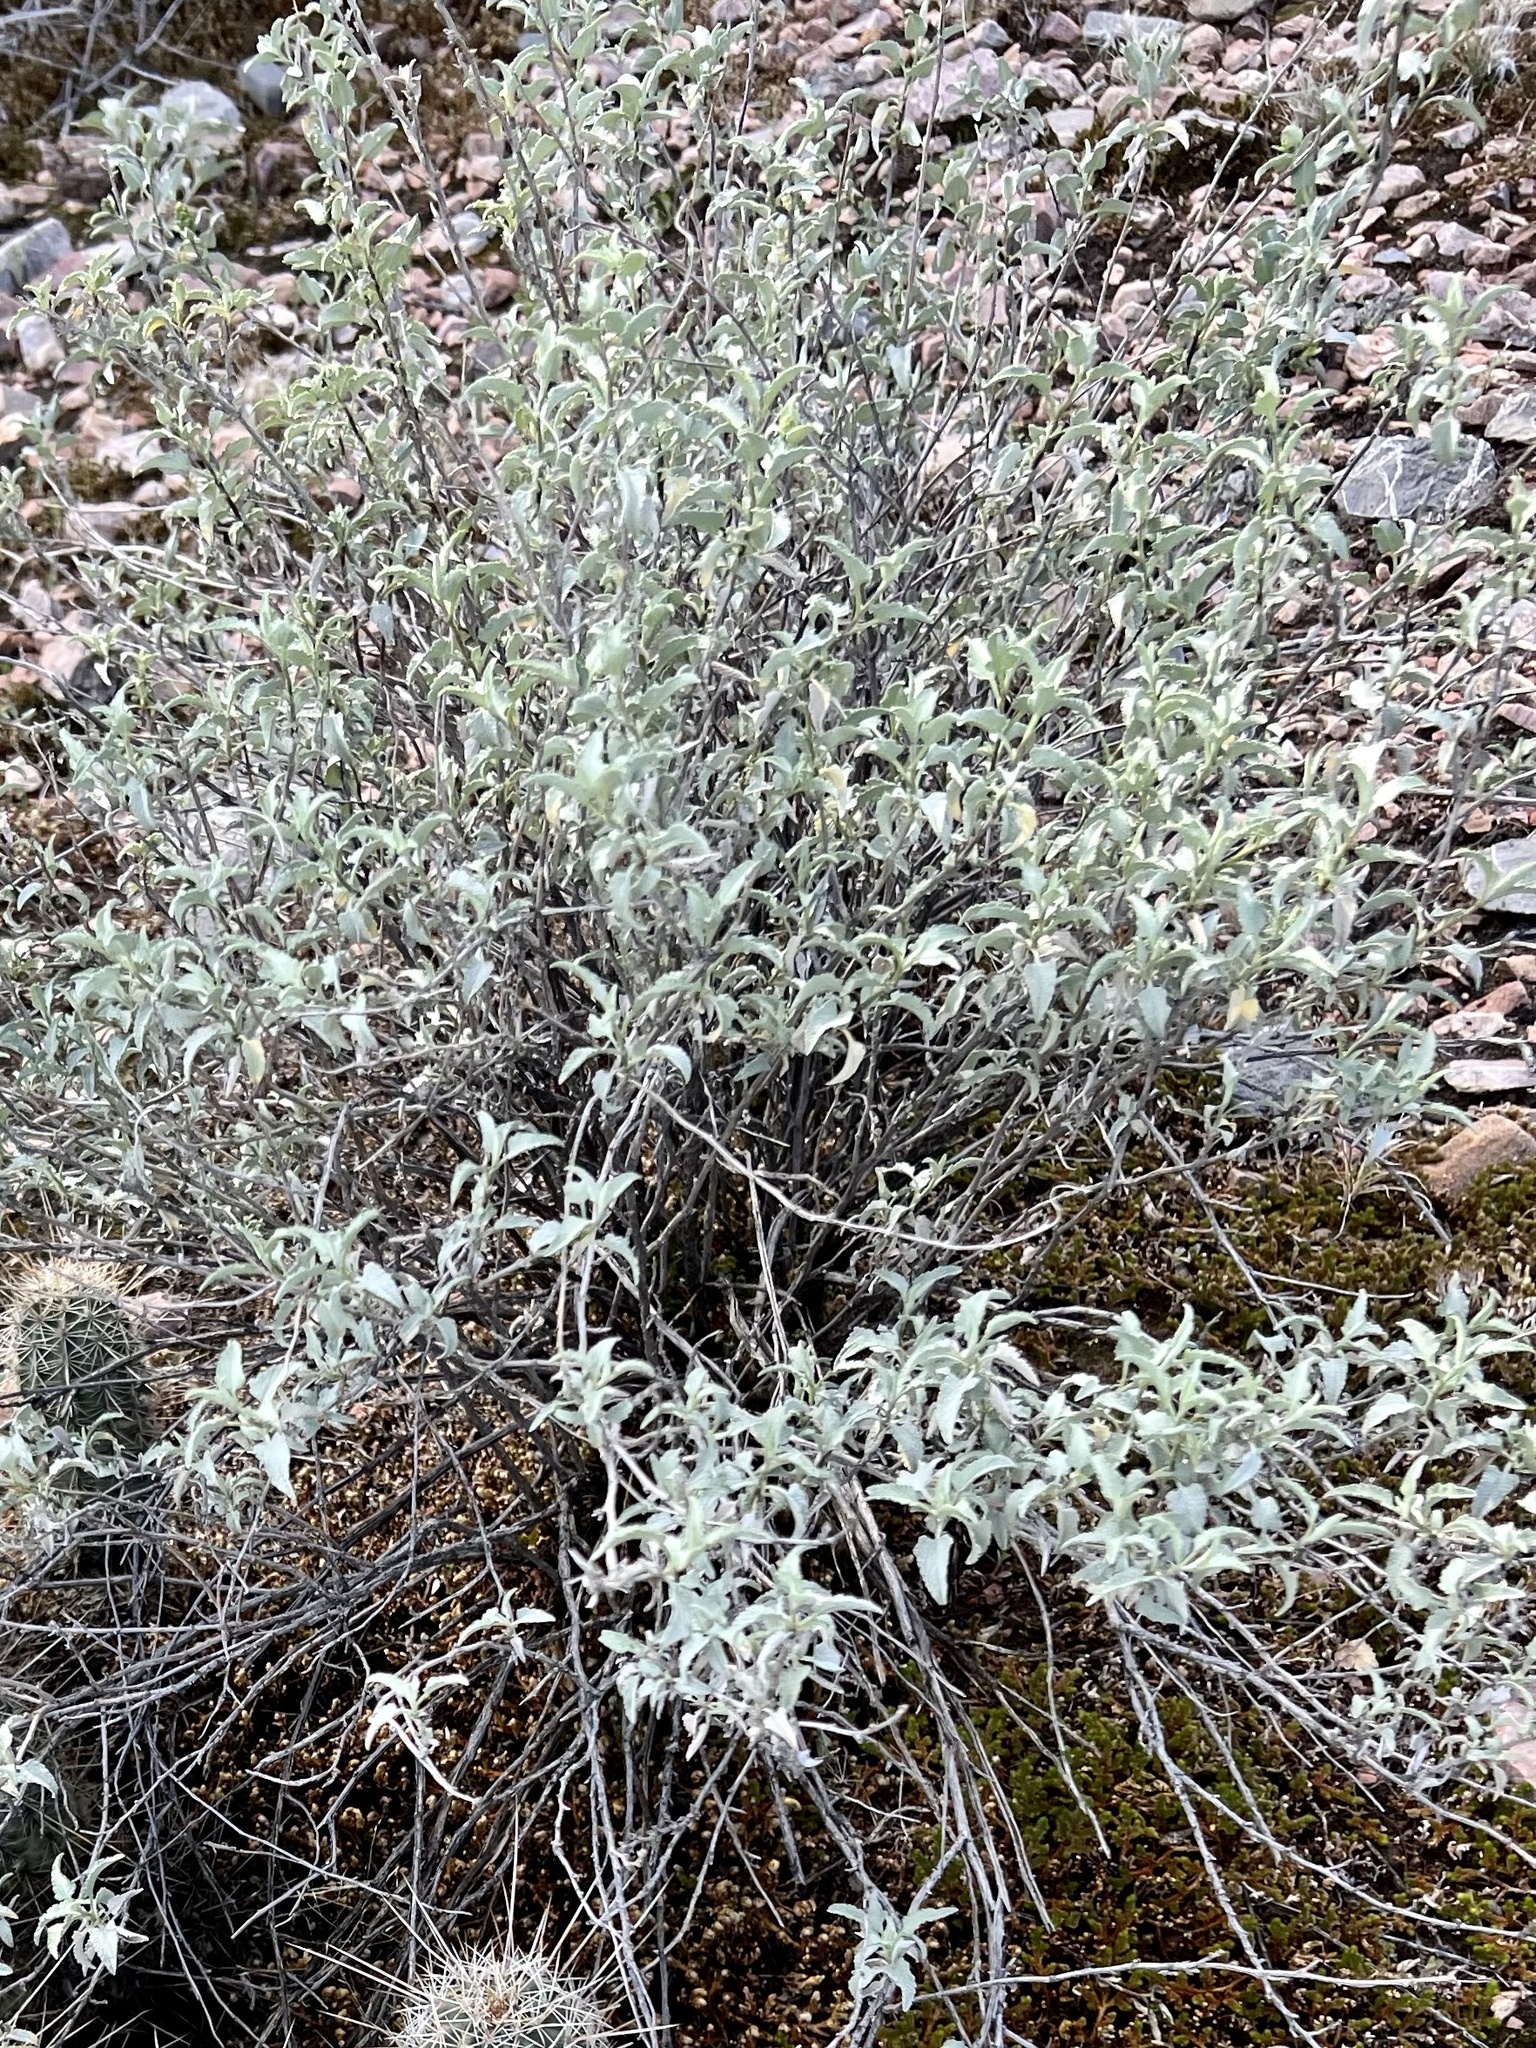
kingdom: Plantae
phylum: Tracheophyta
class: Magnoliopsida
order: Asterales
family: Asteraceae
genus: Ambrosia
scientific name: Ambrosia deltoidea
